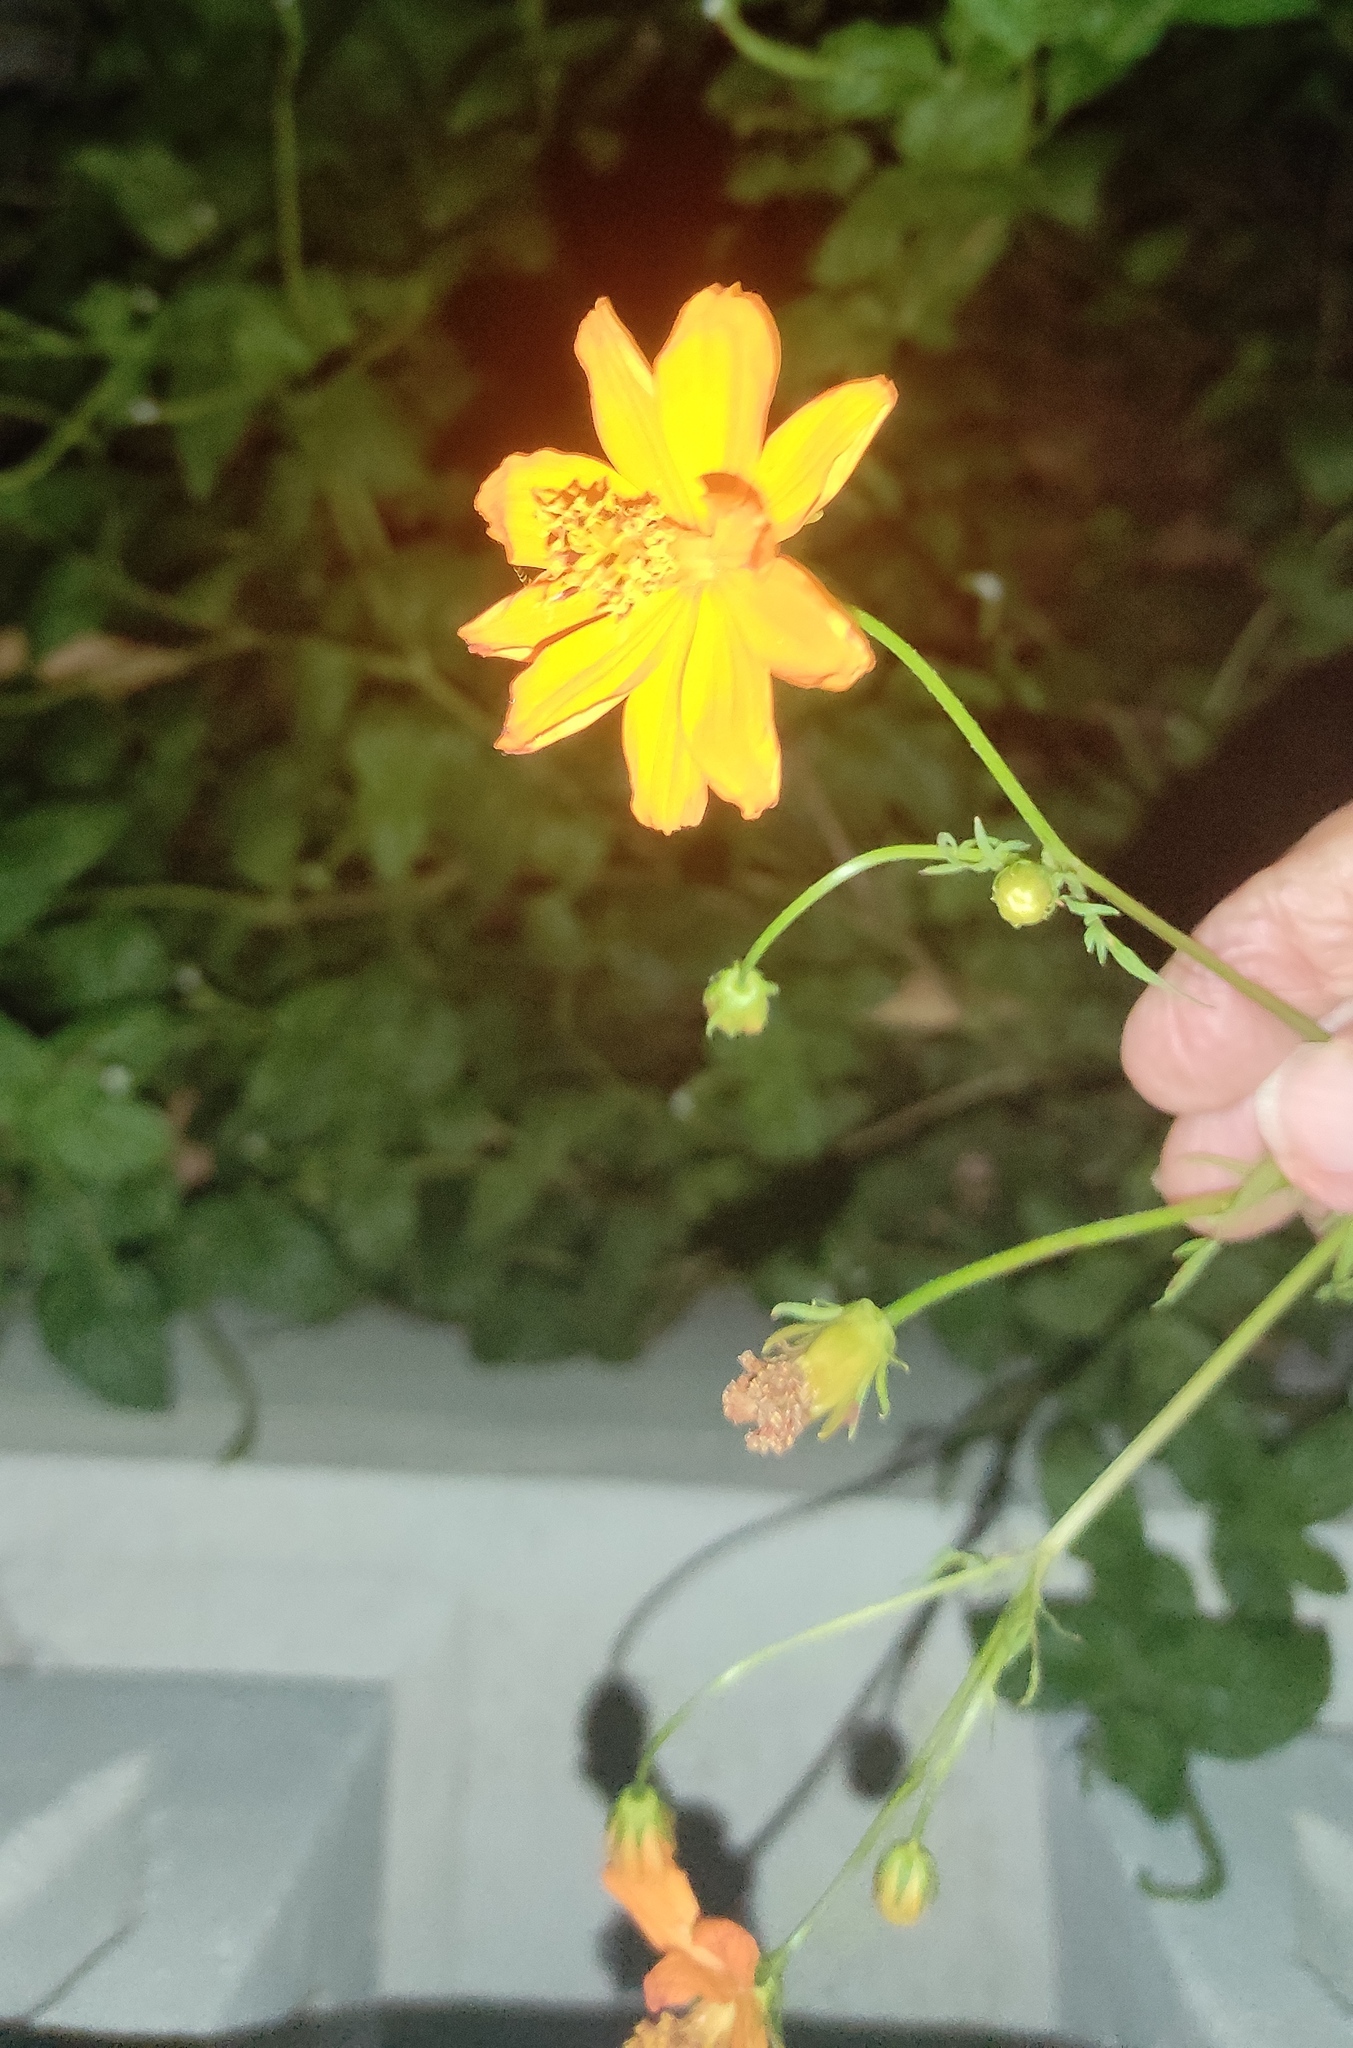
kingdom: Plantae
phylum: Tracheophyta
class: Magnoliopsida
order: Asterales
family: Asteraceae
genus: Cosmos
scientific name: Cosmos sulphureus
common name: Sulphur cosmos
